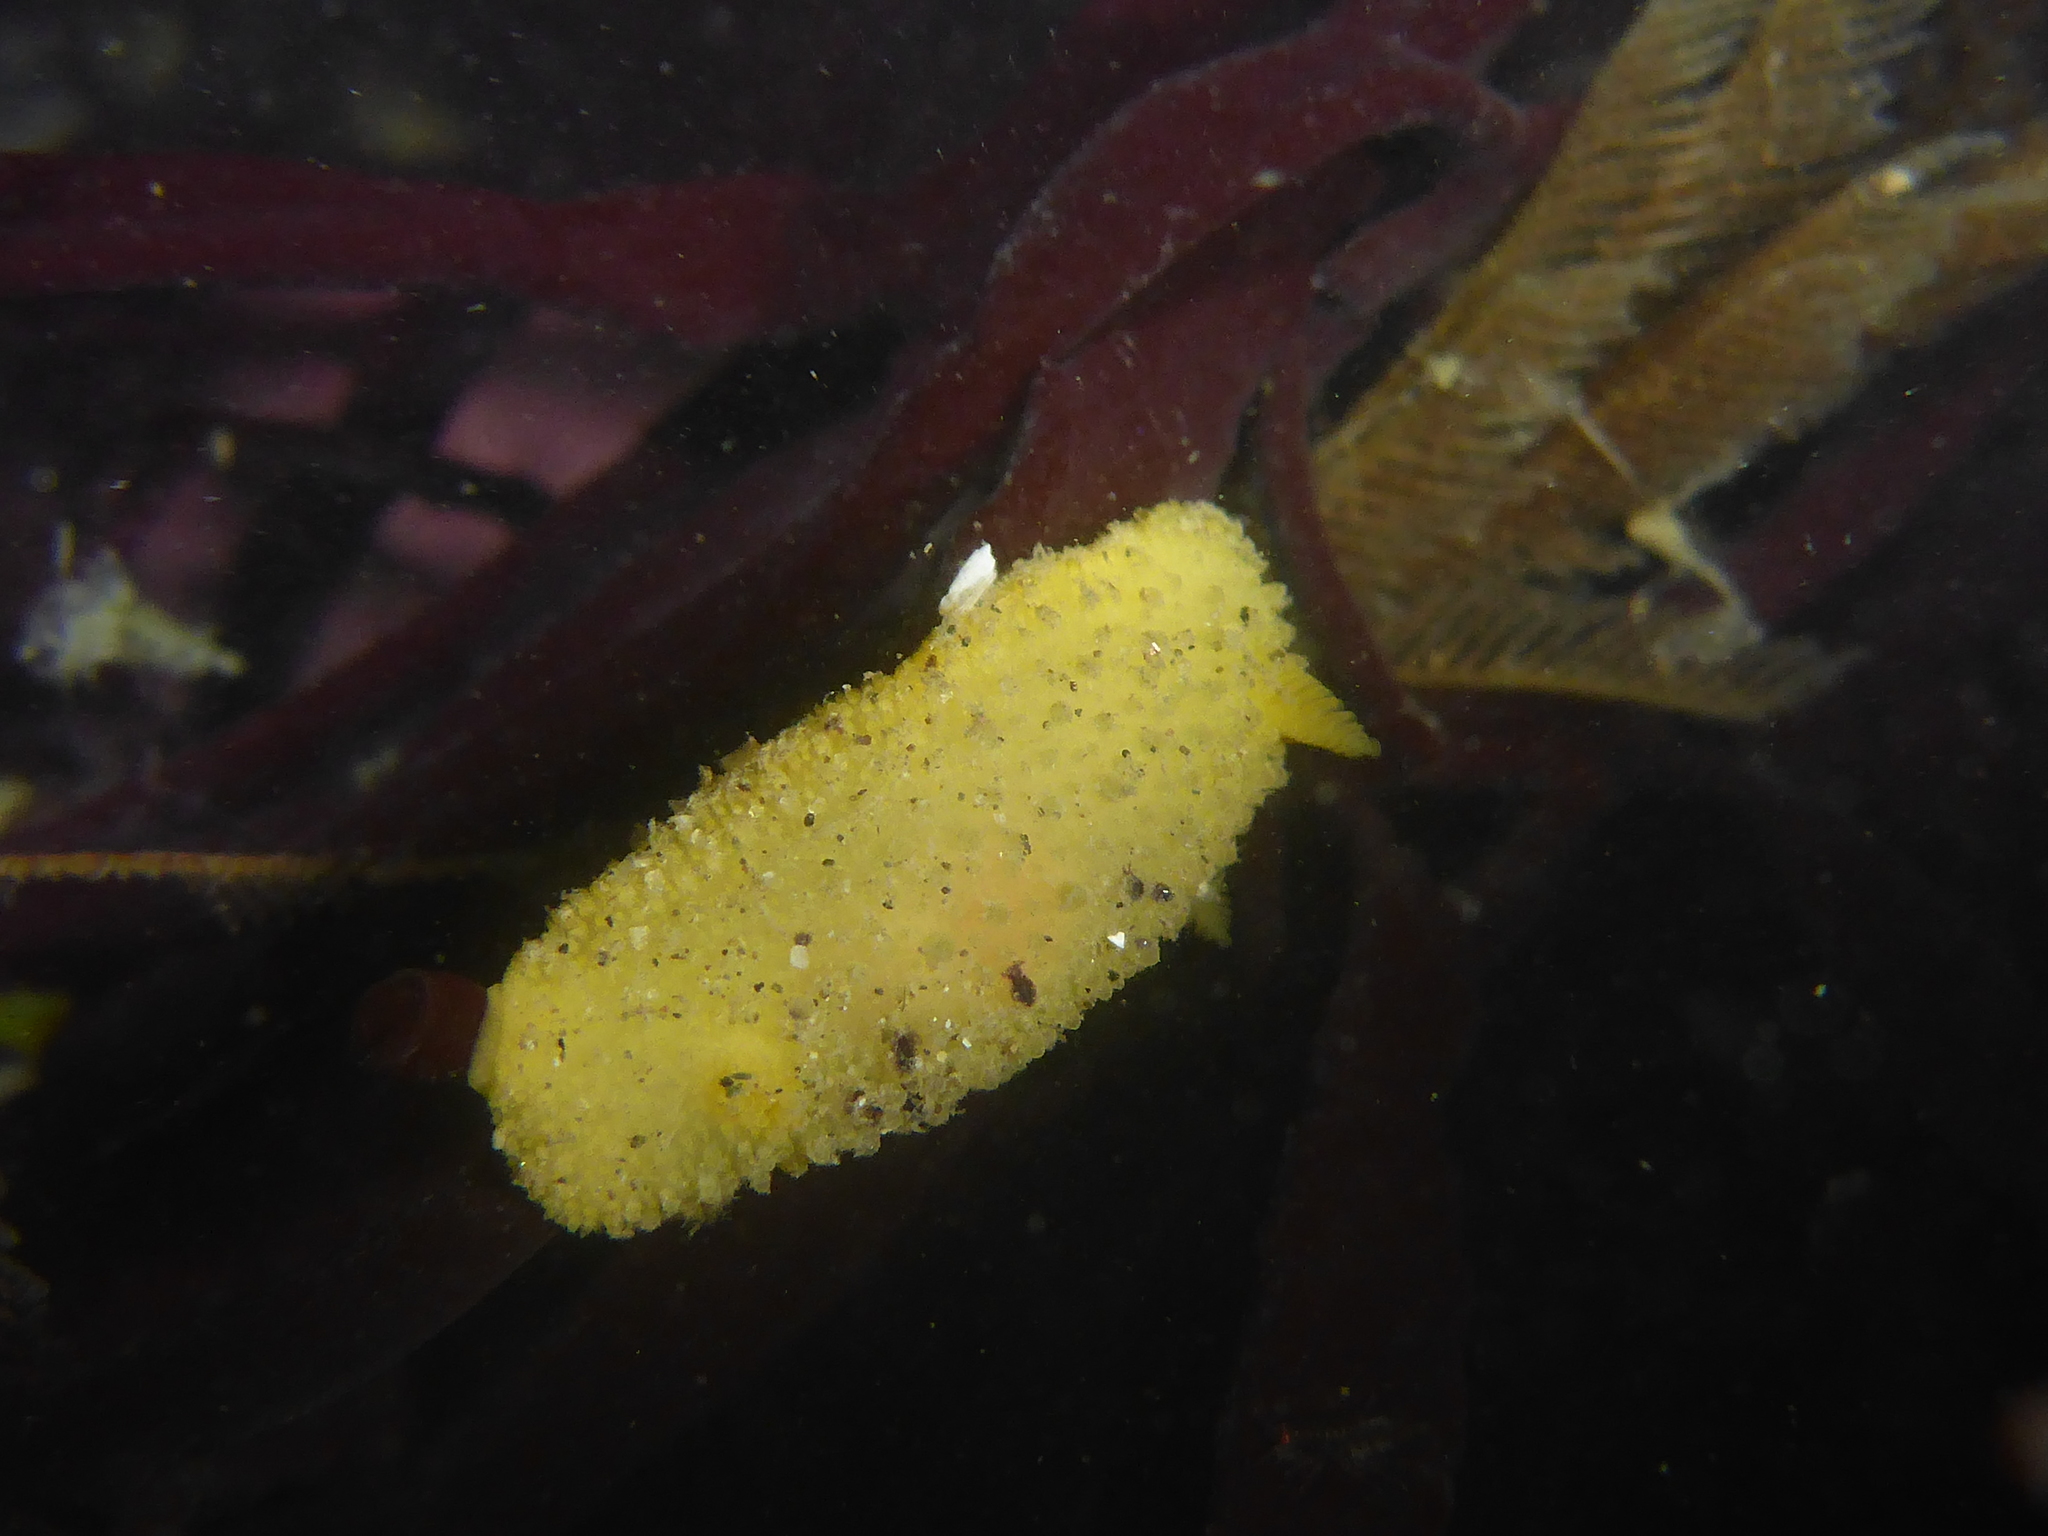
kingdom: Animalia
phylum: Mollusca
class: Gastropoda
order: Nudibranchia
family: Dorididae
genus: Doris
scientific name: Doris montereyensis
